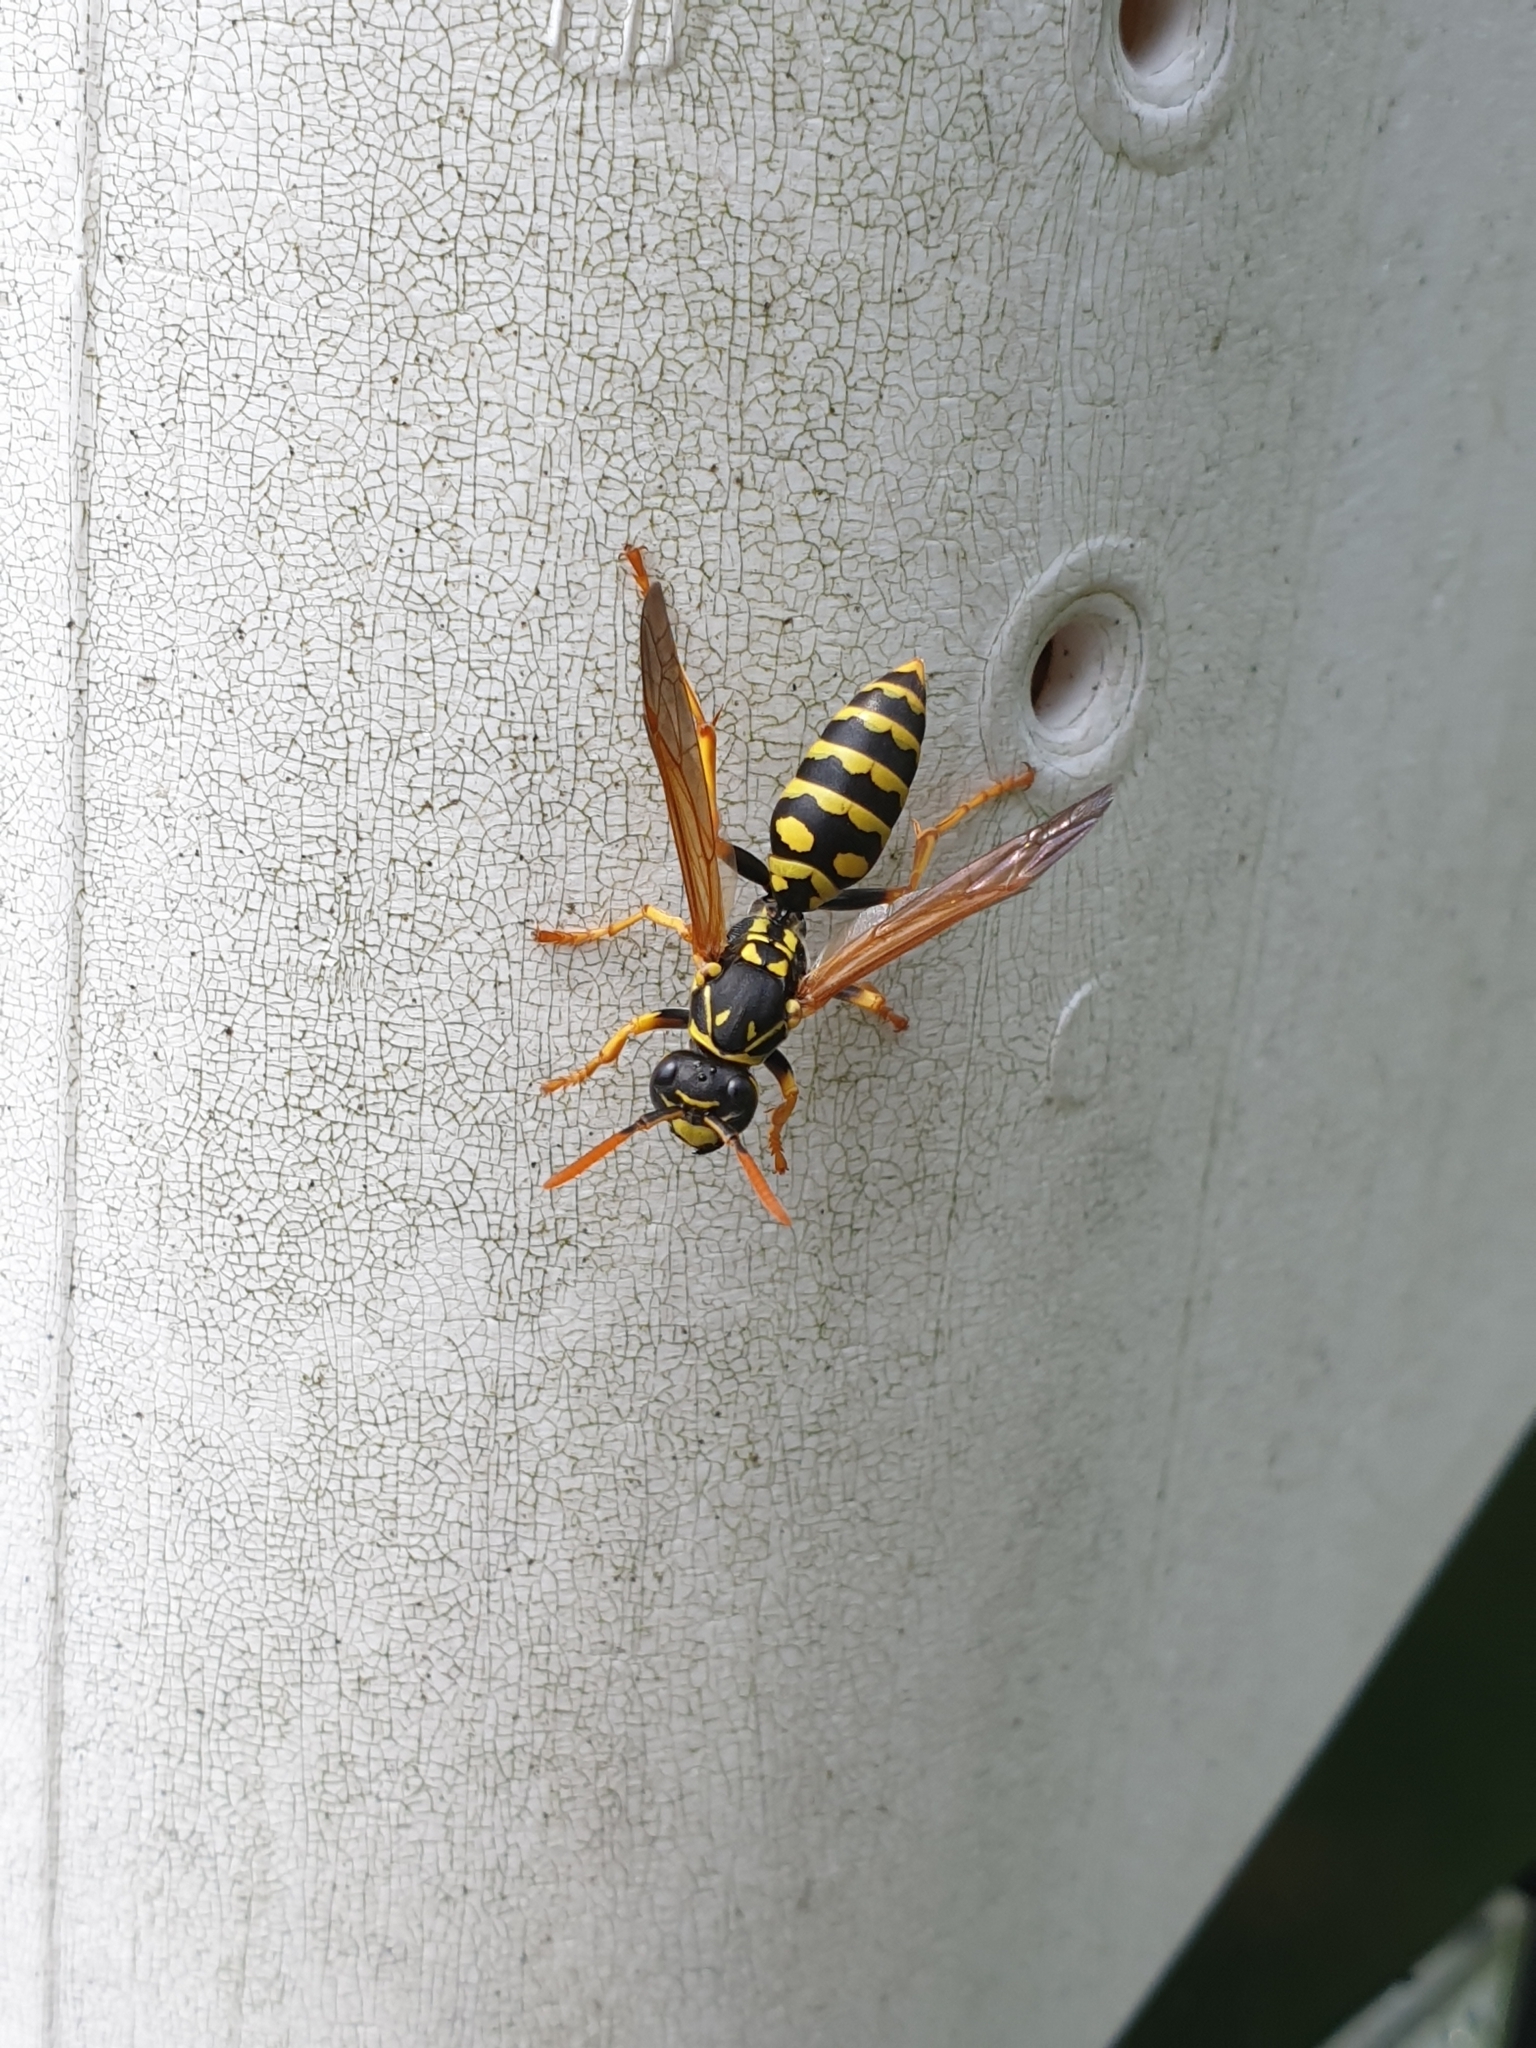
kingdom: Animalia
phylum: Arthropoda
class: Insecta
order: Hymenoptera
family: Eumenidae
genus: Polistes
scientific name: Polistes dominula
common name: Paper wasp
